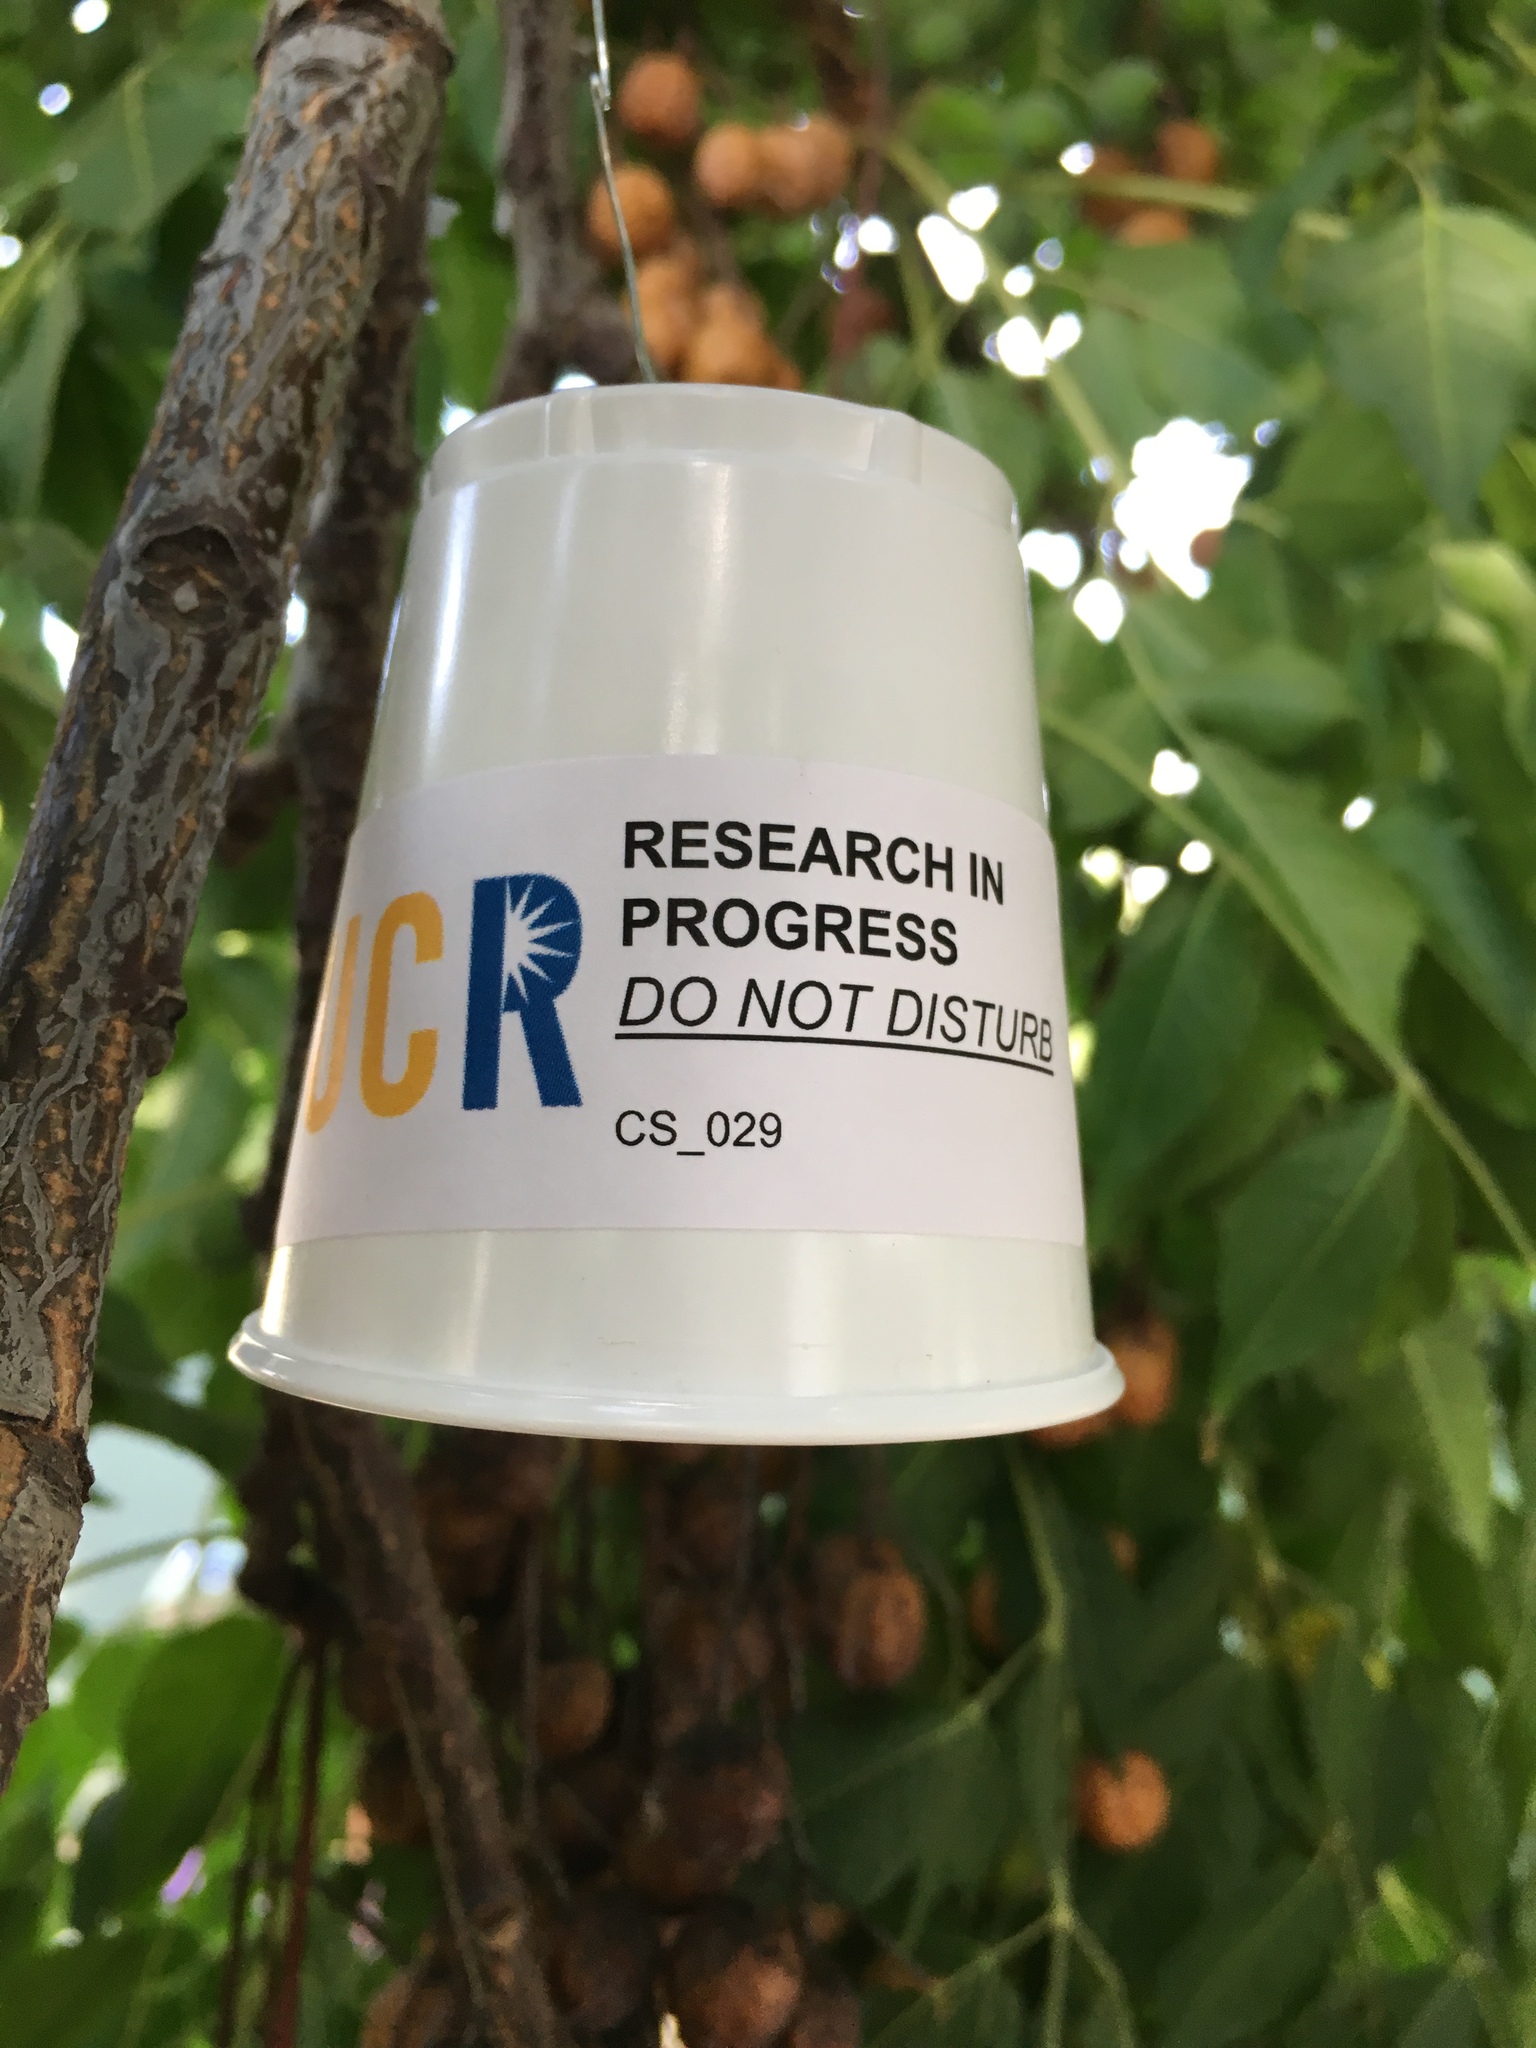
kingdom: Plantae
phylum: Tracheophyta
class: Magnoliopsida
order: Sapindales
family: Meliaceae
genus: Melia
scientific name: Melia azedarach
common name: Chinaberrytree
